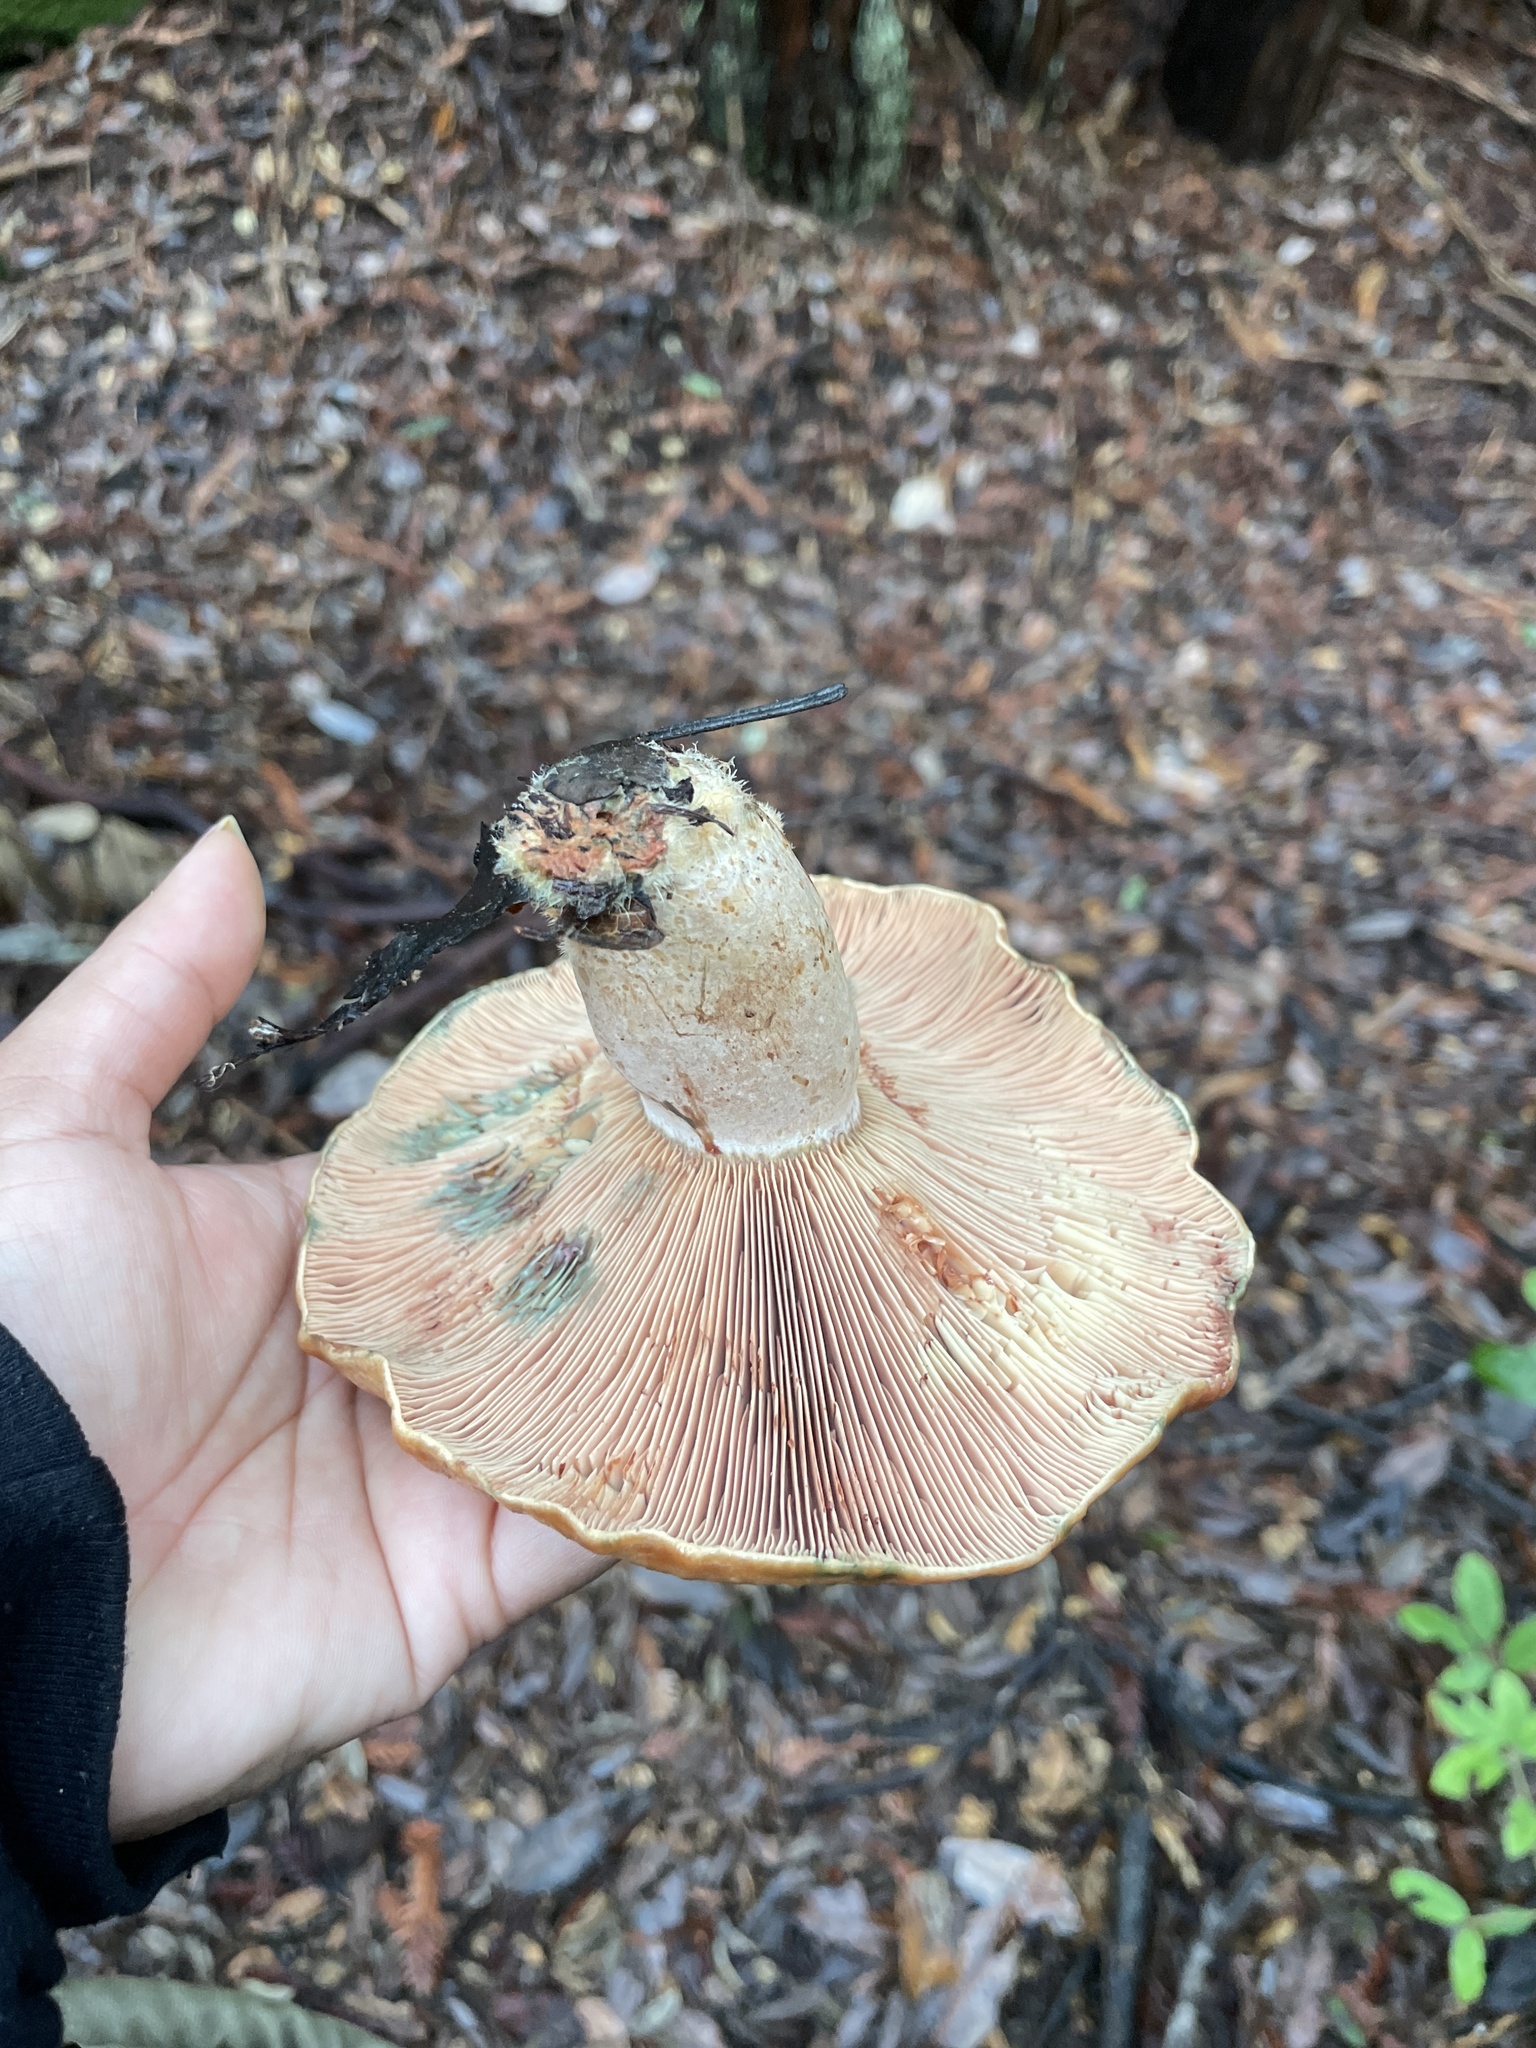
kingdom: Fungi
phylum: Basidiomycota
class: Agaricomycetes
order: Russulales
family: Russulaceae
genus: Lactarius
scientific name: Lactarius rubrilacteus
